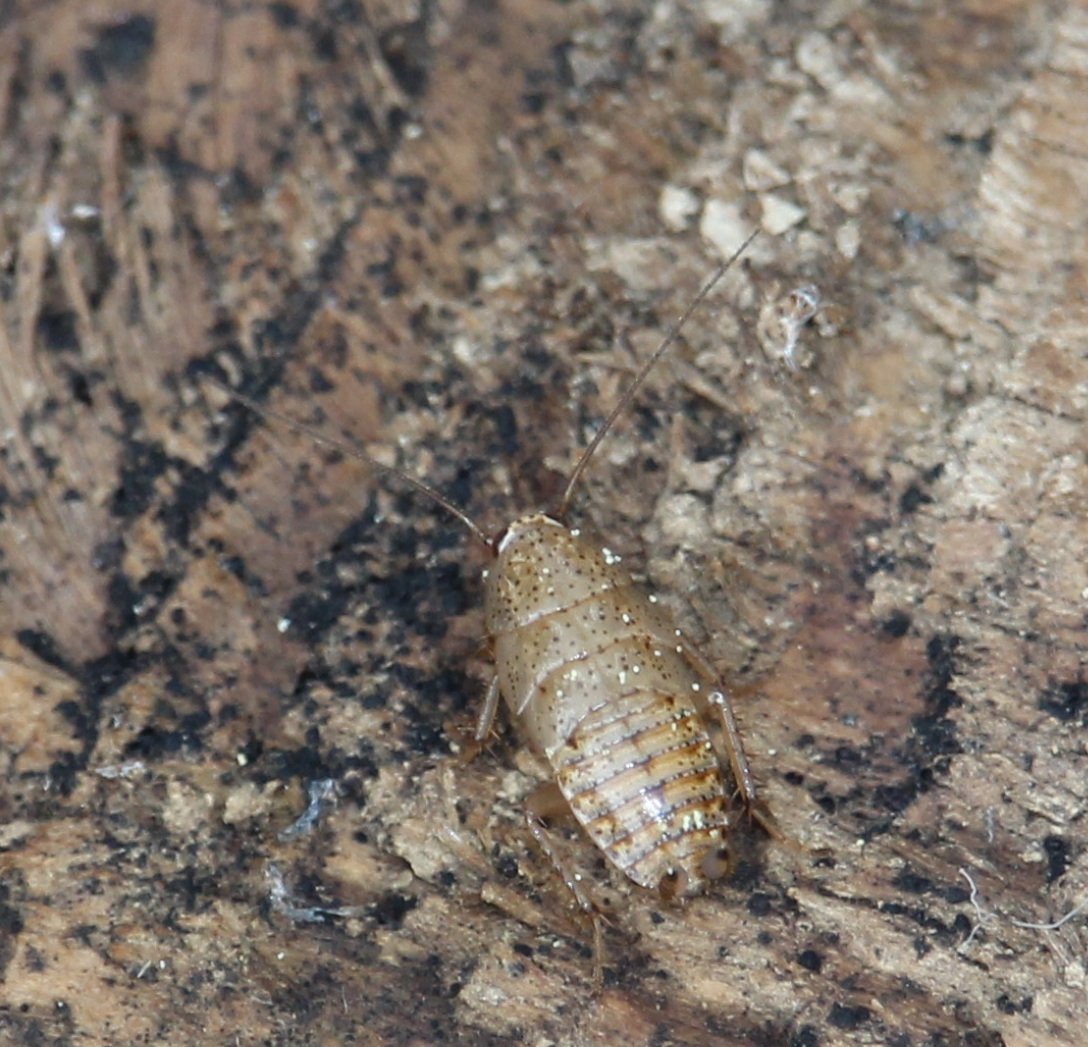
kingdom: Animalia
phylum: Arthropoda
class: Insecta
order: Blattodea
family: Ectobiidae
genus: Ectobius
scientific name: Ectobius pallidus
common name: Tawny cockroach
